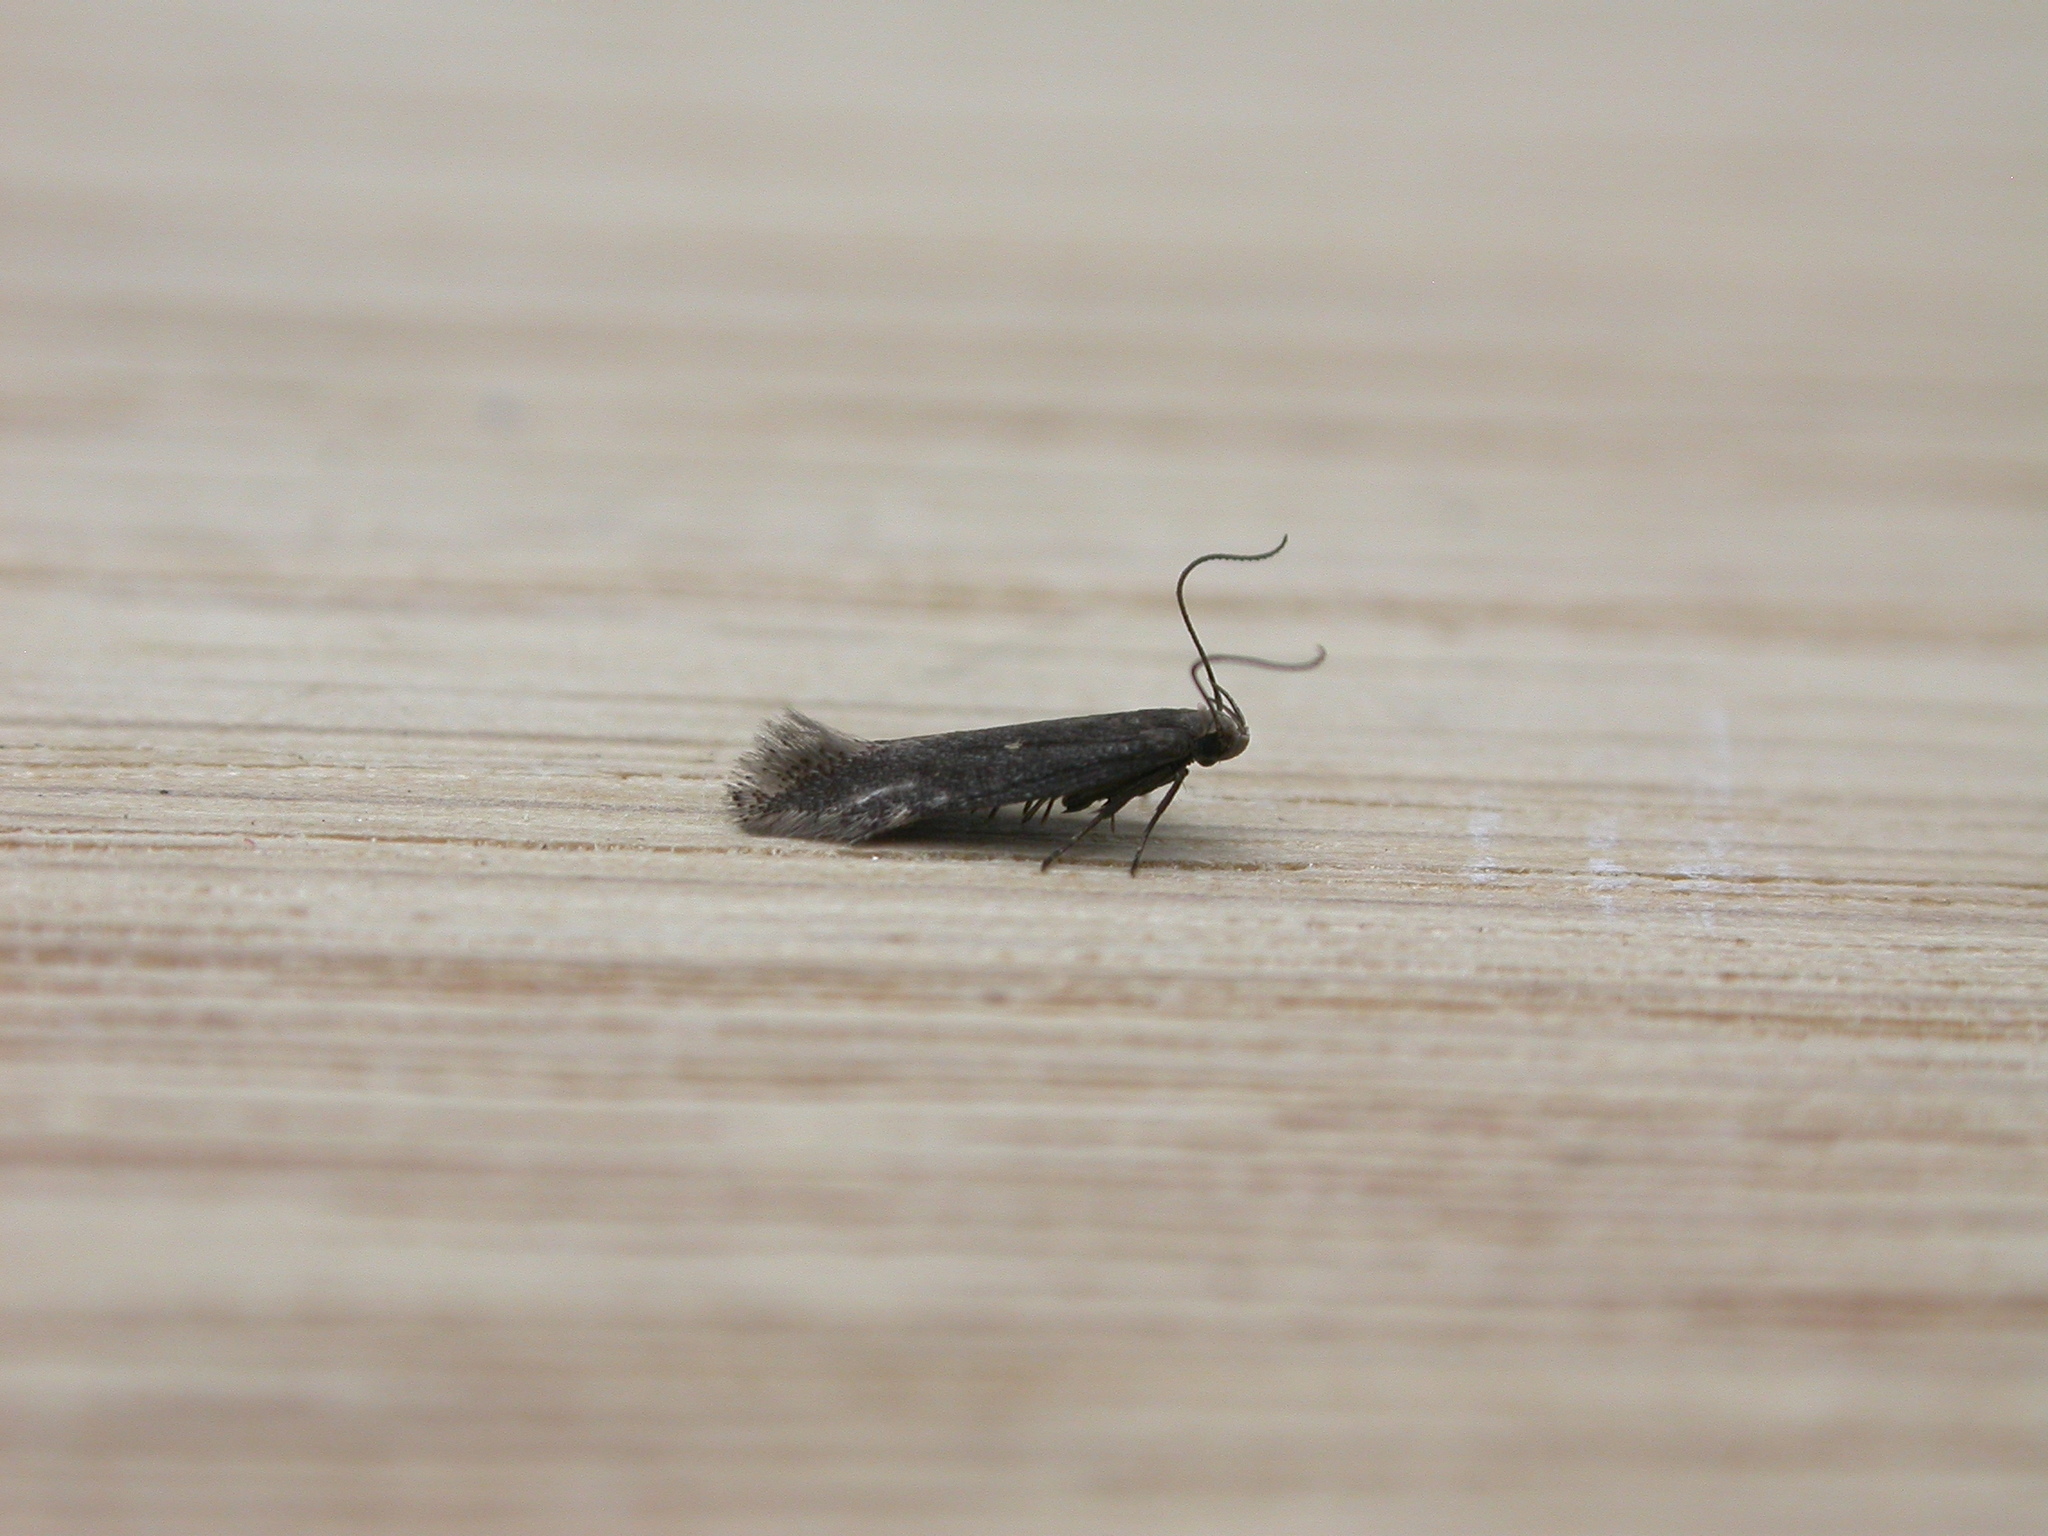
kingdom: Animalia
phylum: Arthropoda
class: Insecta
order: Lepidoptera
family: Gelechiidae
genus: Aproaerema
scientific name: Aproaerema anthyllidella
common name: Vetch sober
